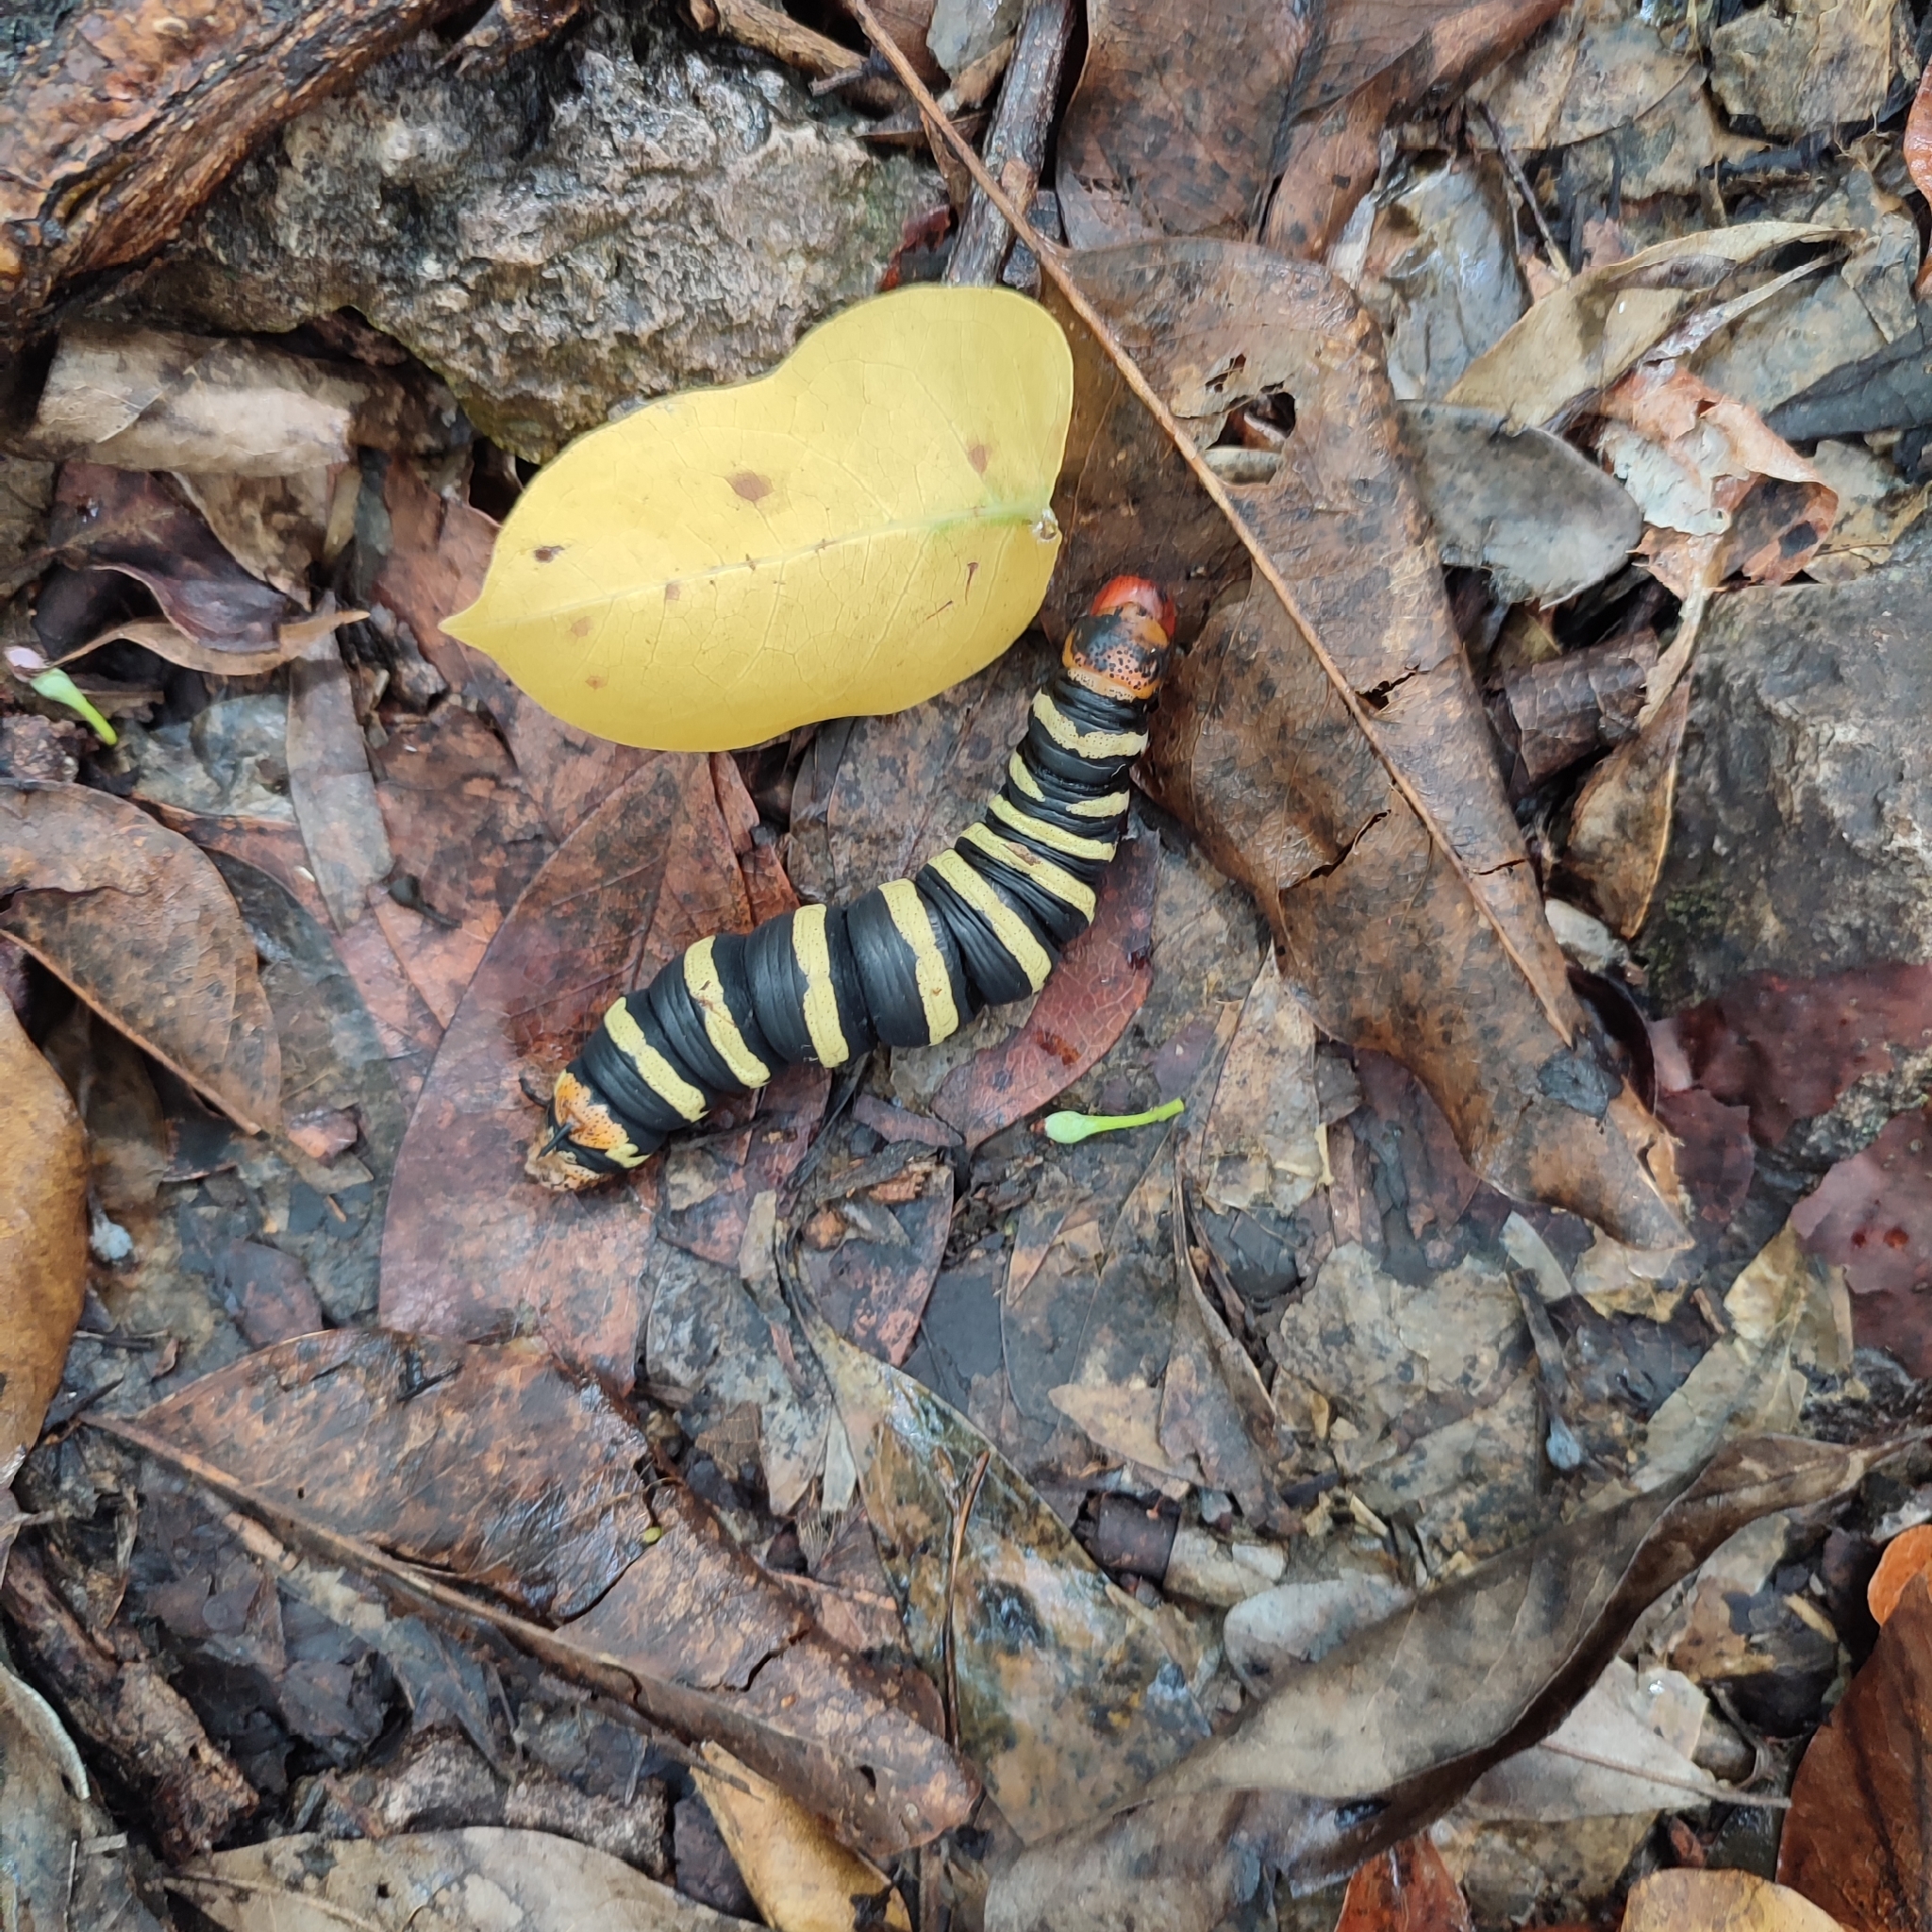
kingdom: Animalia
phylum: Arthropoda
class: Insecta
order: Lepidoptera
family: Sphingidae
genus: Pseudosphinx
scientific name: Pseudosphinx tetrio
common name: Tetrio sphinx
